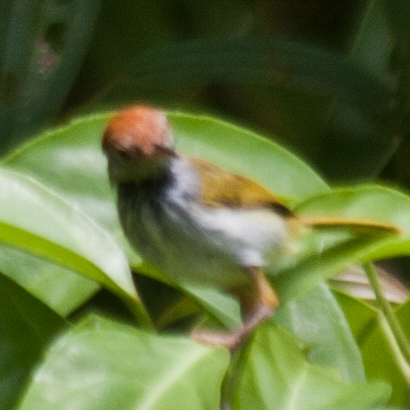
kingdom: Animalia
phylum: Chordata
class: Aves
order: Passeriformes
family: Cisticolidae
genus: Orthotomus
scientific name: Orthotomus atrogularis
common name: Dark-necked tailorbird
